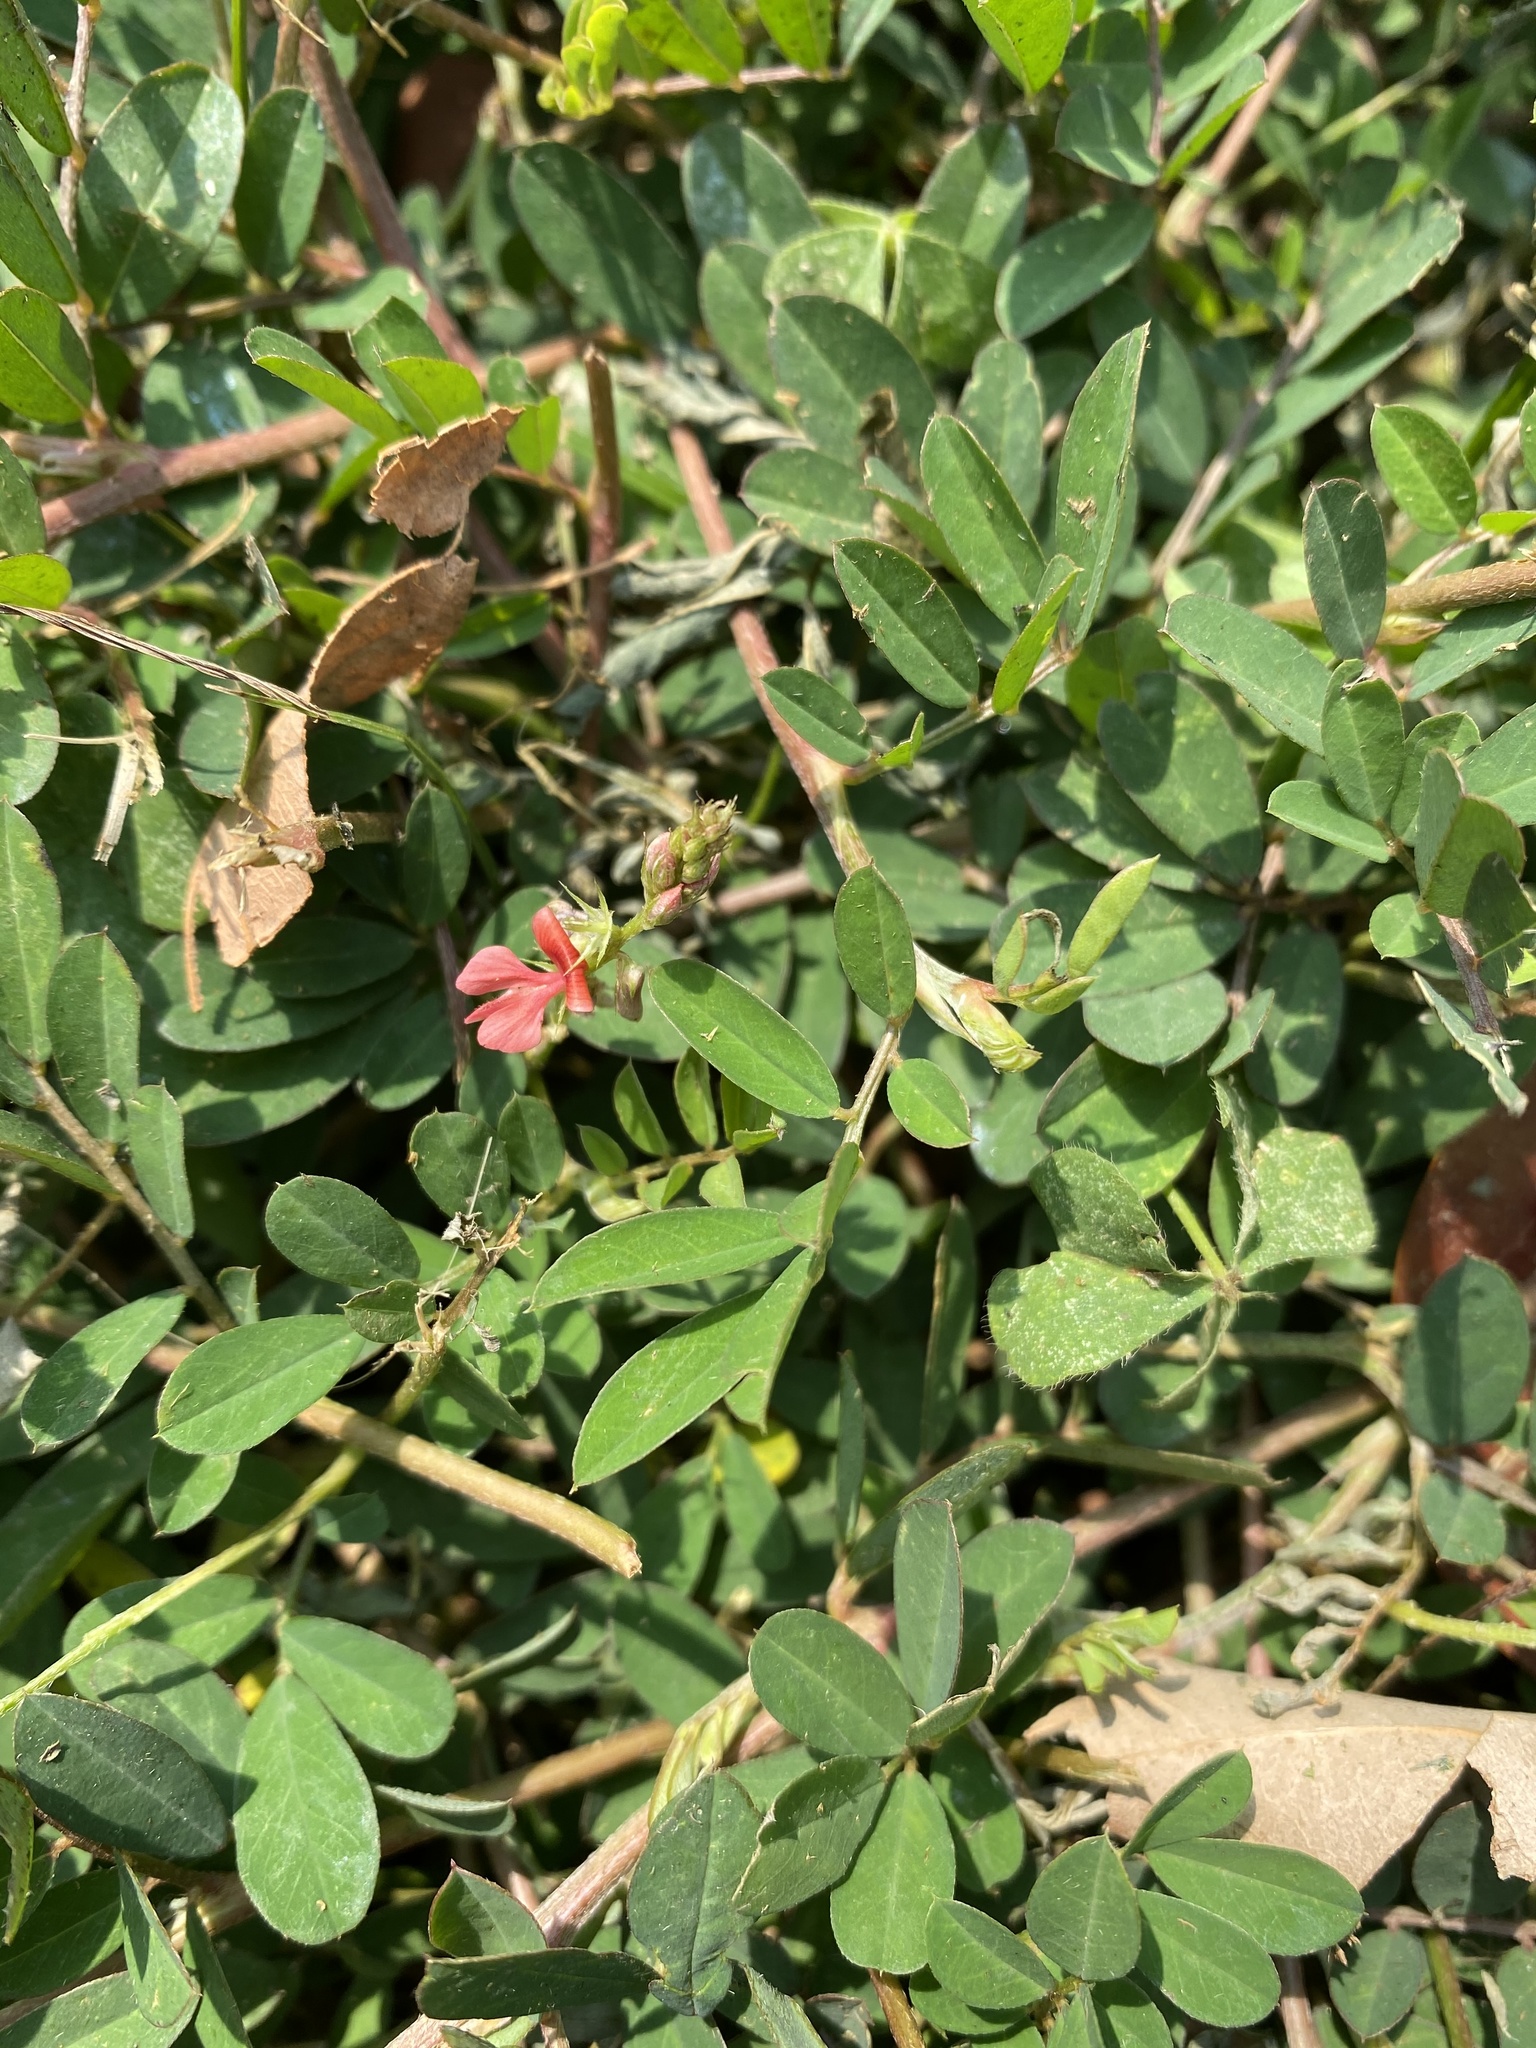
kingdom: Plantae
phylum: Tracheophyta
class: Magnoliopsida
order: Fabales
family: Fabaceae
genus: Indigofera
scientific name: Indigofera hendecaphylla
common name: Trailing indigo
